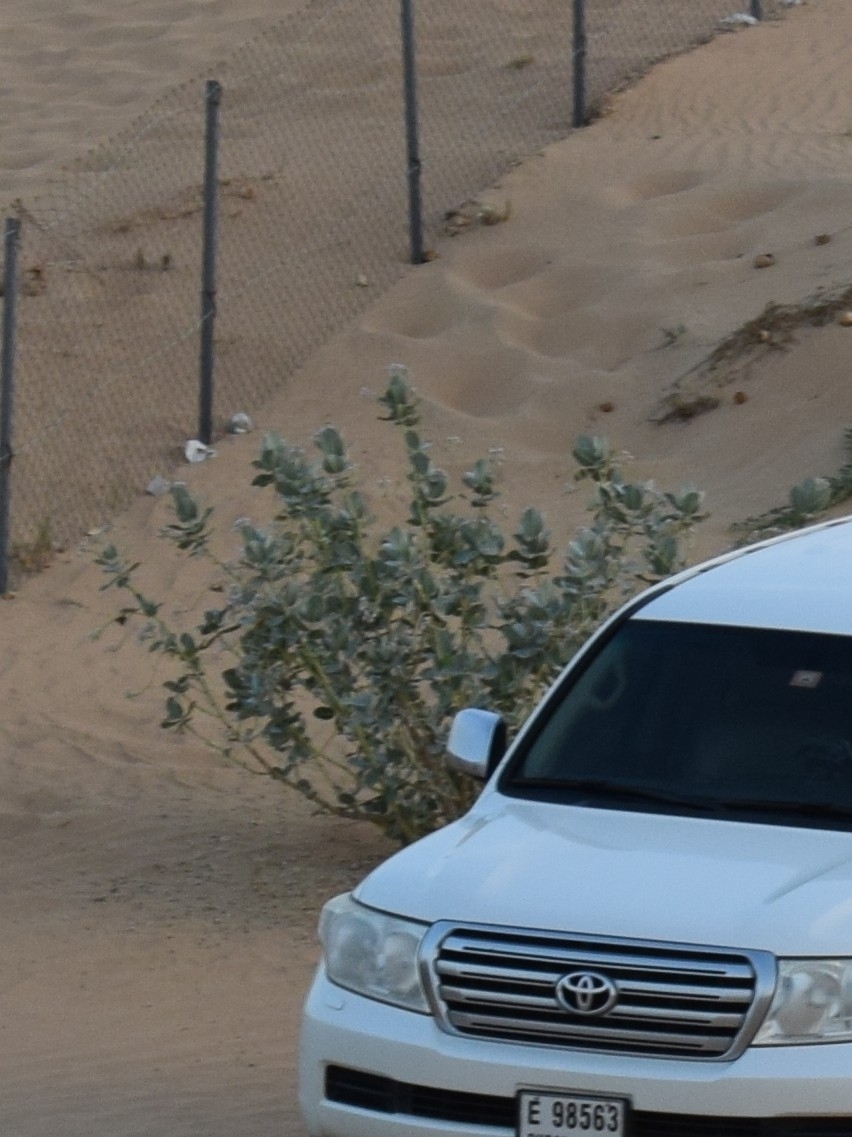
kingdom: Plantae
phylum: Tracheophyta
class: Magnoliopsida
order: Gentianales
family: Apocynaceae
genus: Calotropis
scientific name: Calotropis procera
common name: Roostertree
